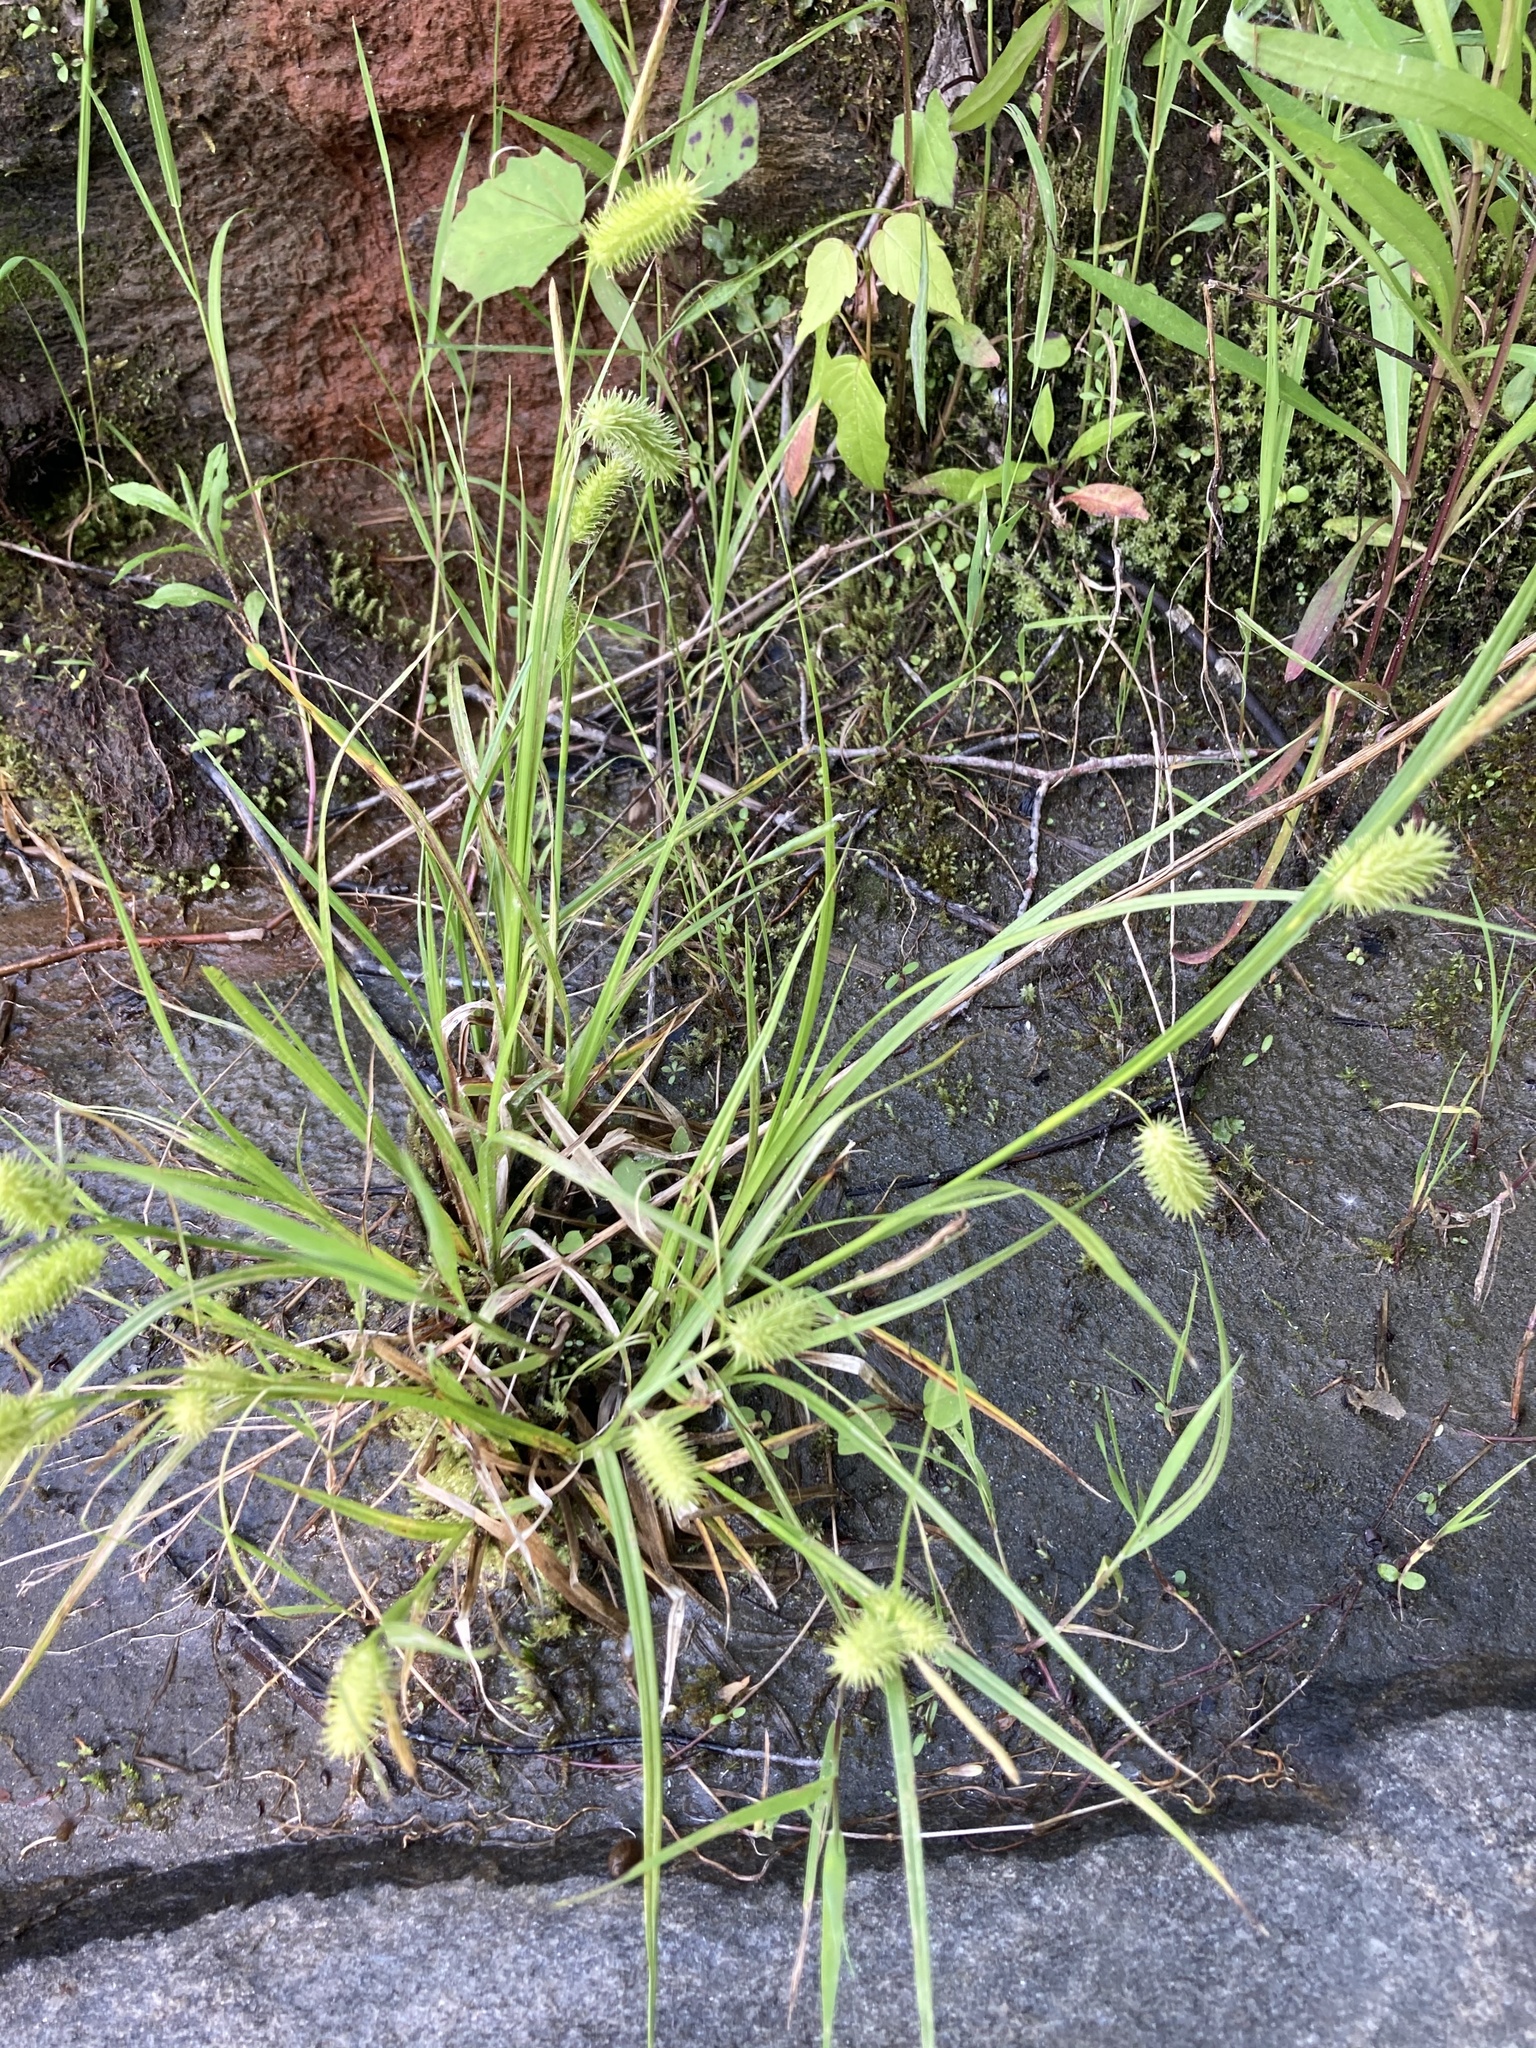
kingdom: Plantae
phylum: Tracheophyta
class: Liliopsida
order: Poales
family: Cyperaceae
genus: Carex
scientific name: Carex hystericina
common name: Bottlebrush sedge
